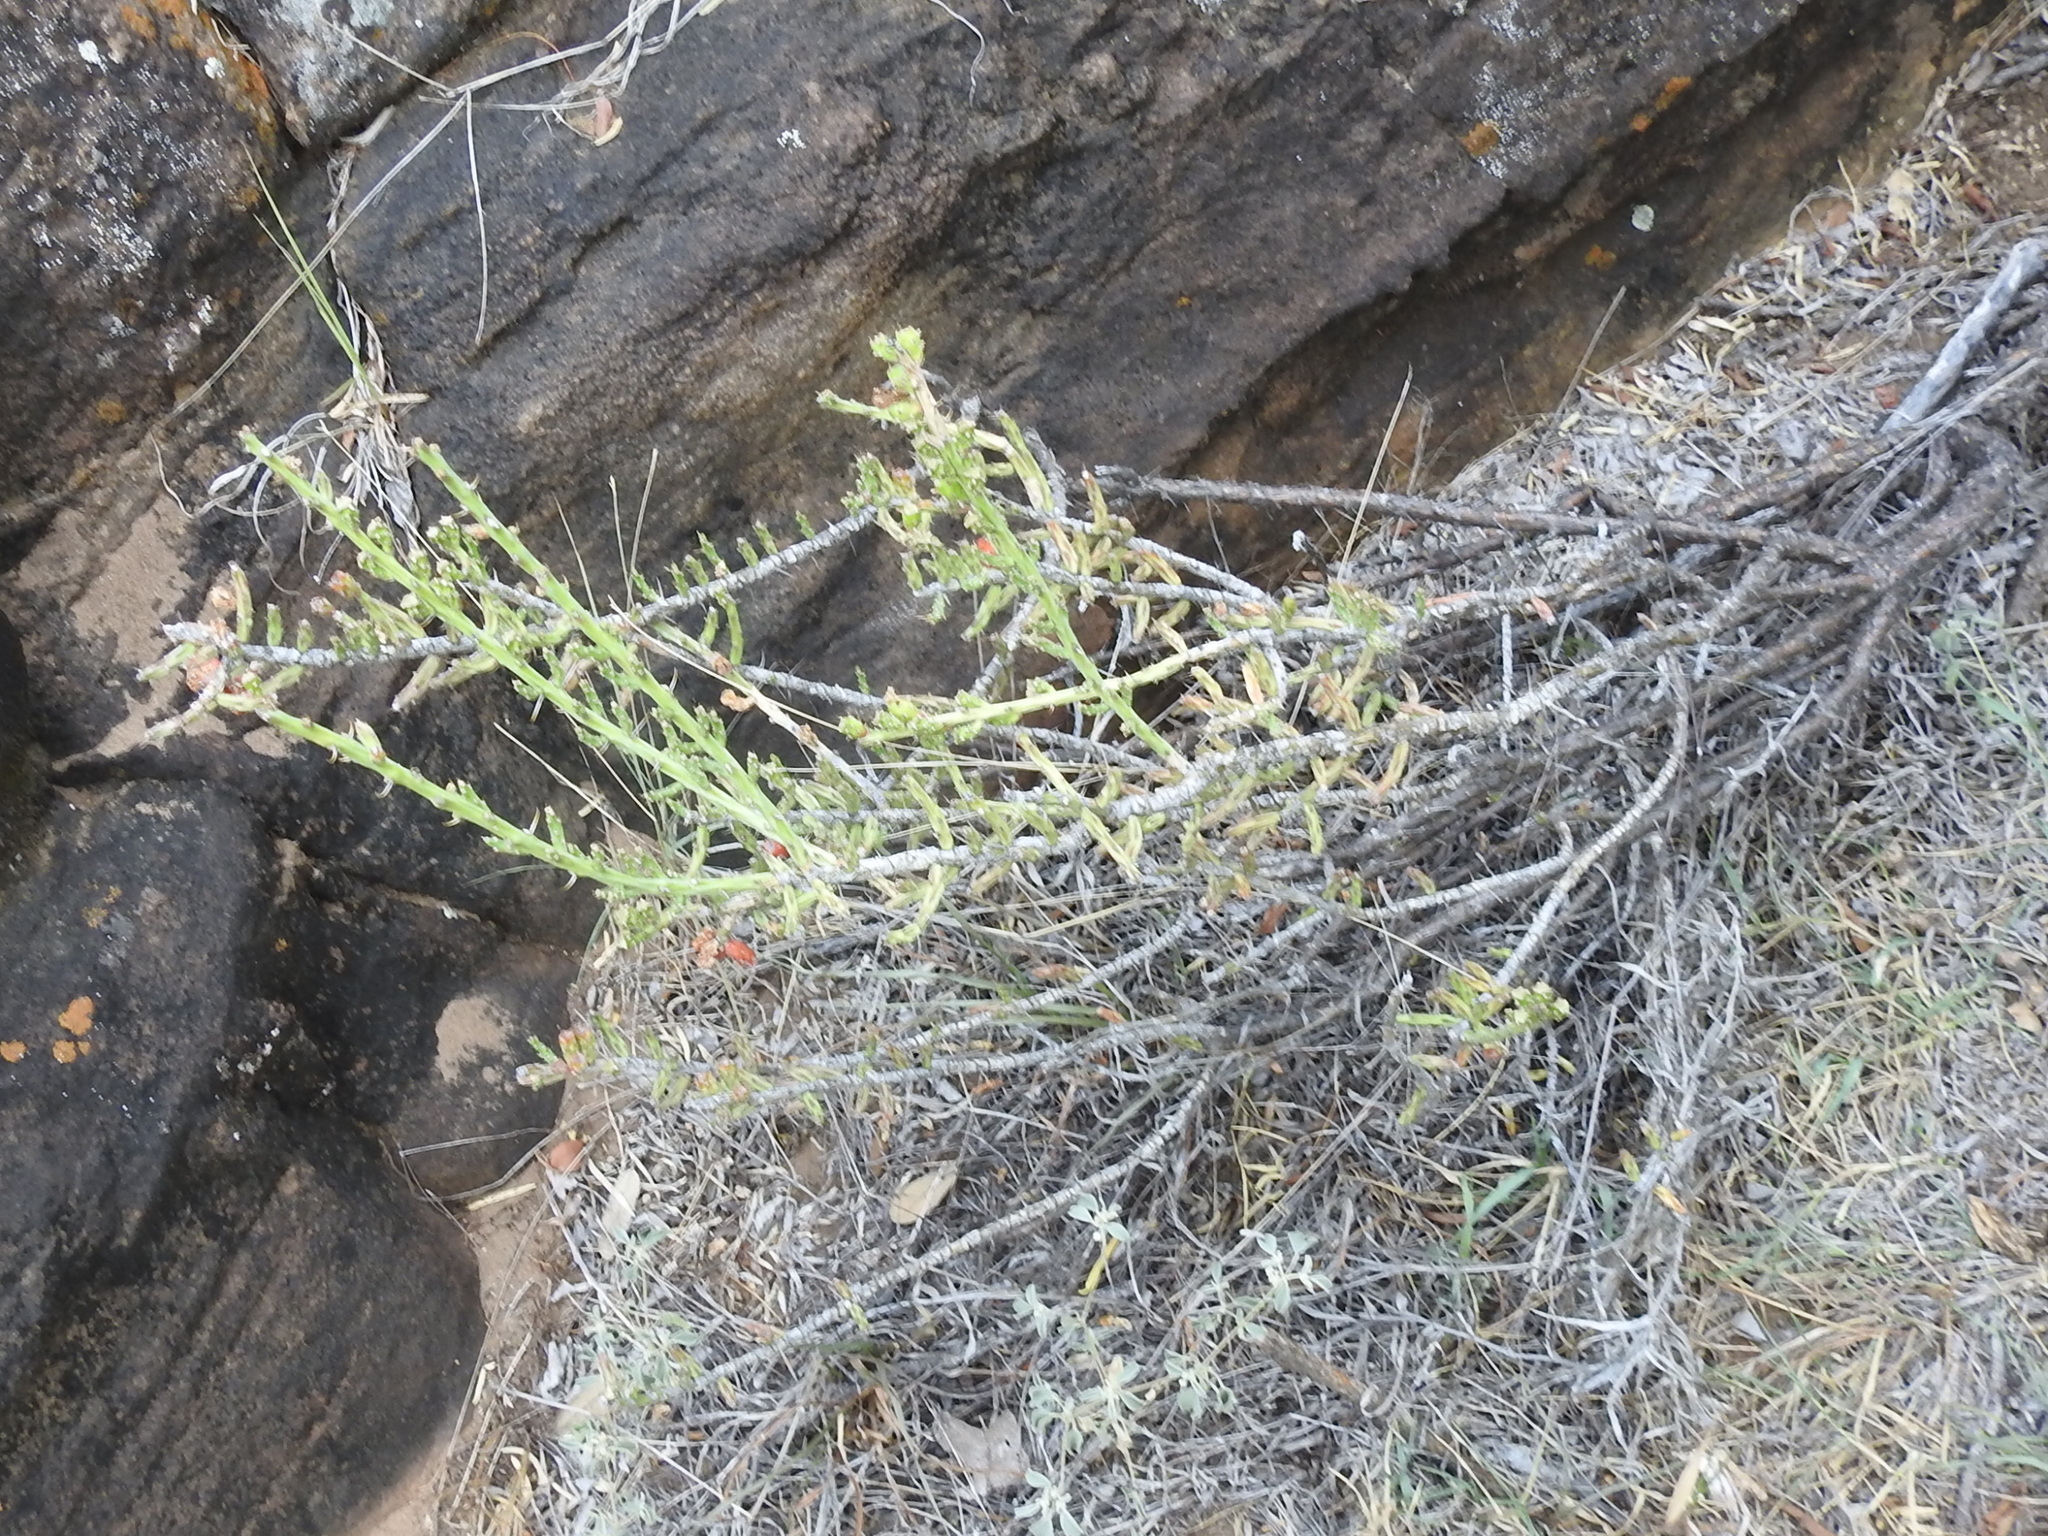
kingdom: Plantae
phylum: Tracheophyta
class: Magnoliopsida
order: Caryophyllales
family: Cactaceae
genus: Cylindropuntia
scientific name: Cylindropuntia leptocaulis
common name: Christmas cactus
